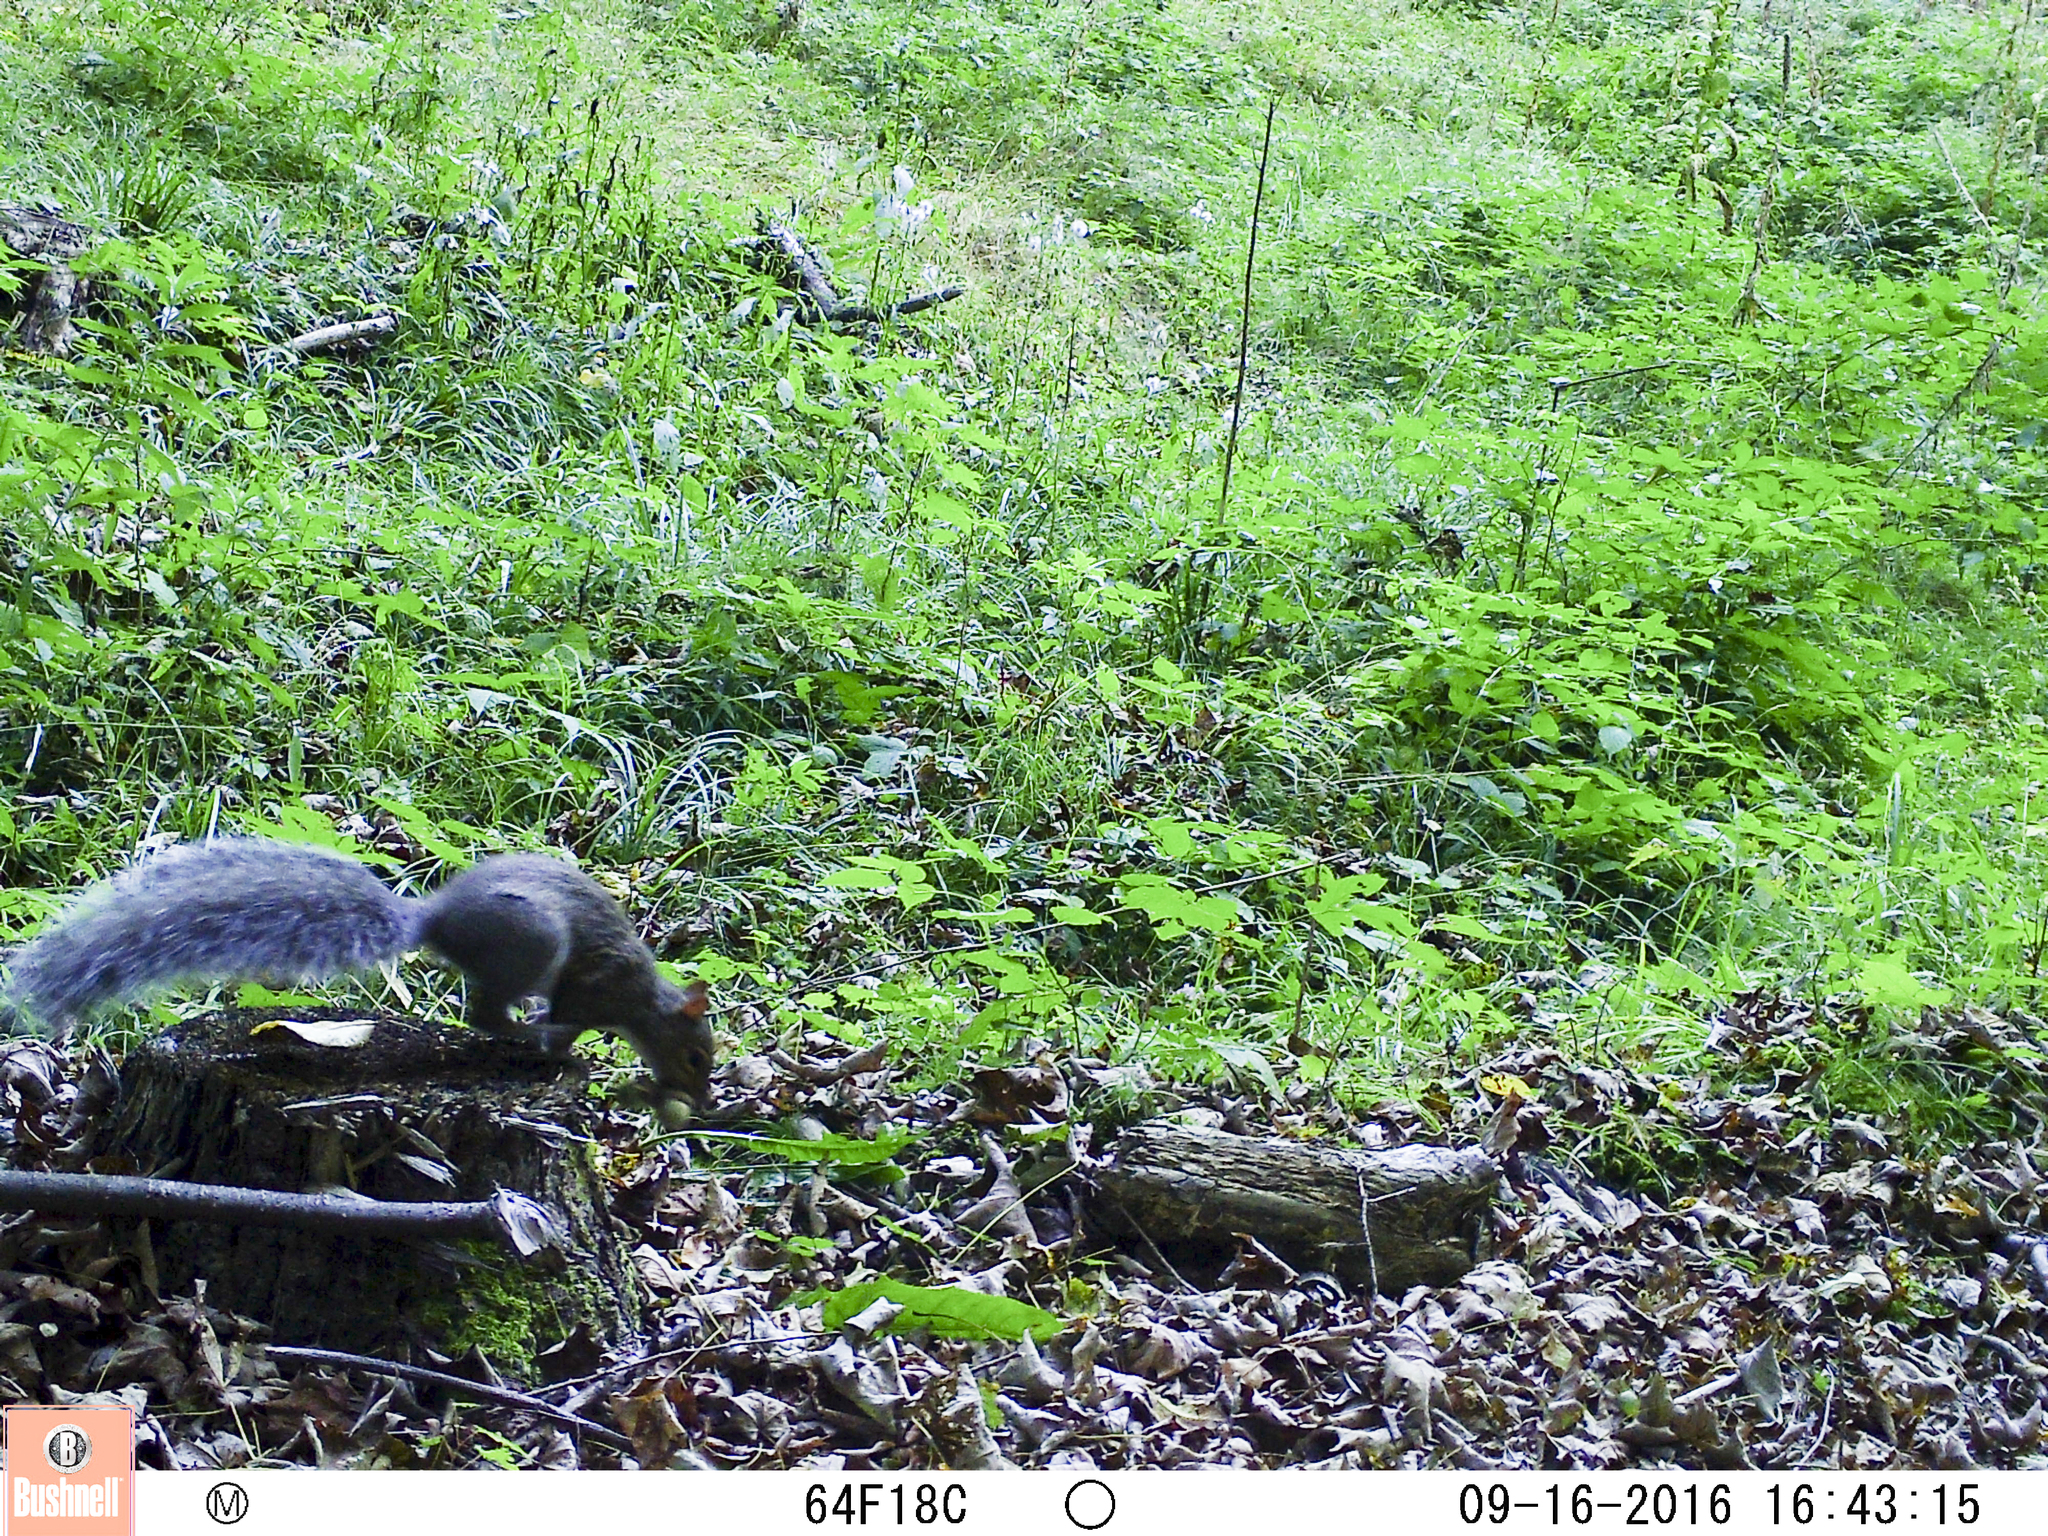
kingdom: Animalia
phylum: Chordata
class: Mammalia
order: Rodentia
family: Sciuridae
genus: Sciurus
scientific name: Sciurus carolinensis
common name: Eastern gray squirrel
